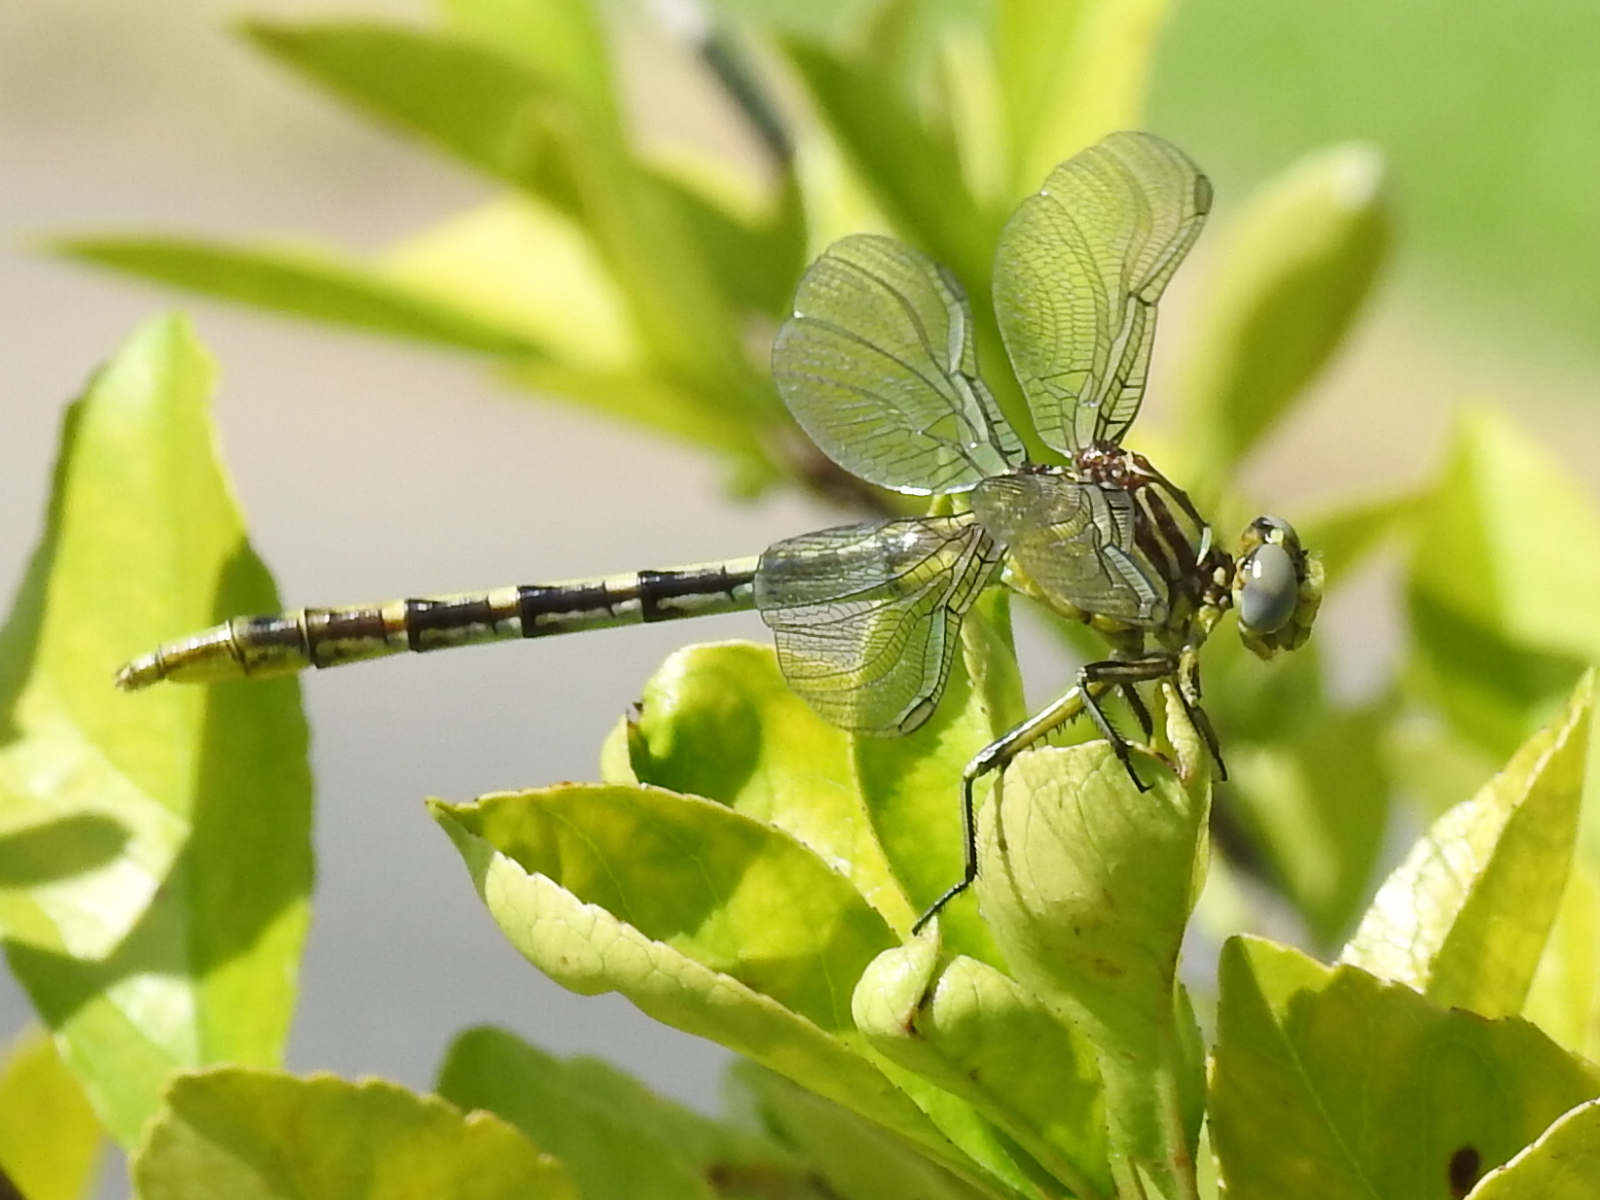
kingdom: Animalia
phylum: Arthropoda
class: Insecta
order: Odonata
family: Gomphidae
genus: Phanogomphus
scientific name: Phanogomphus militaris
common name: Sulphur-tipped clubtail
